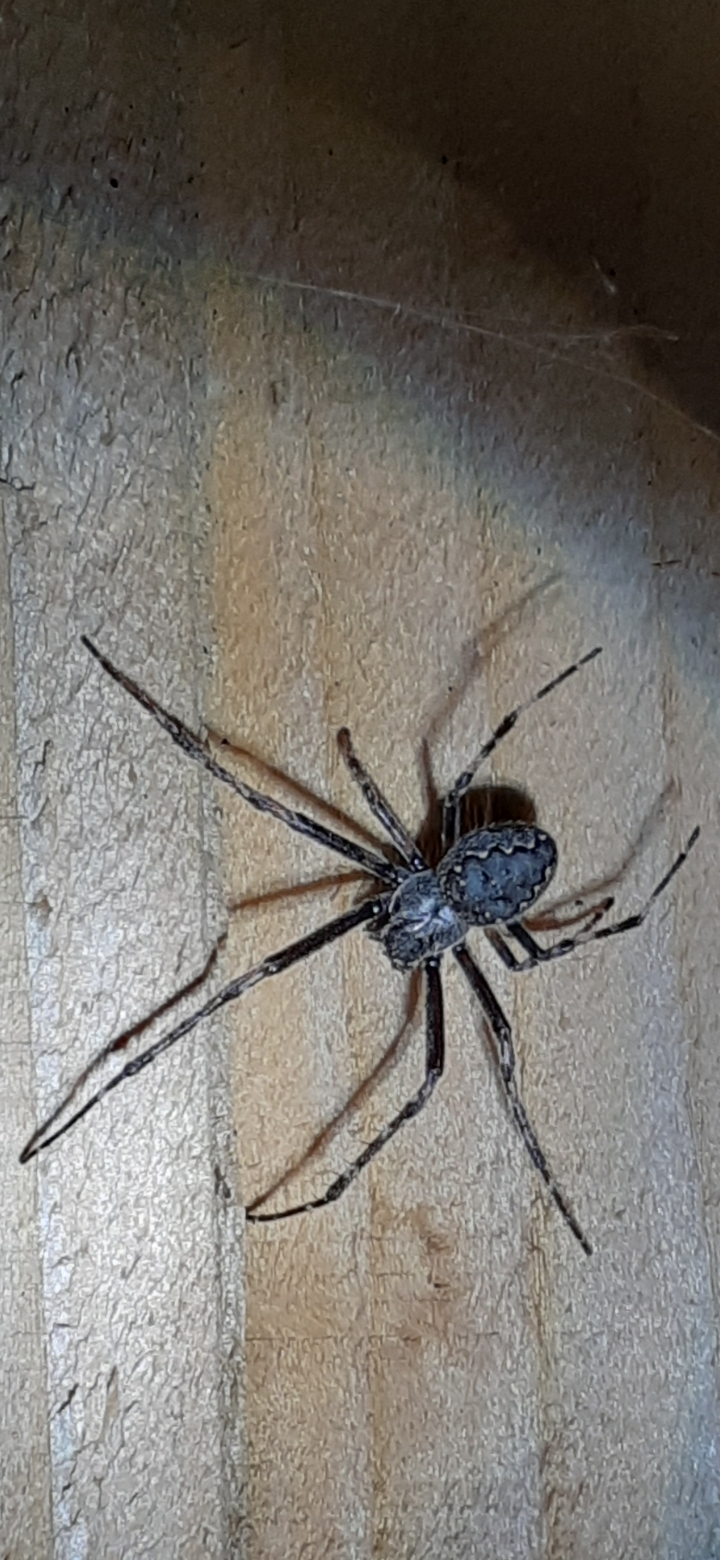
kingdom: Animalia
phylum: Arthropoda
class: Arachnida
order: Araneae
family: Araneidae
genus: Nuctenea
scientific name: Nuctenea umbratica
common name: Toad spider
